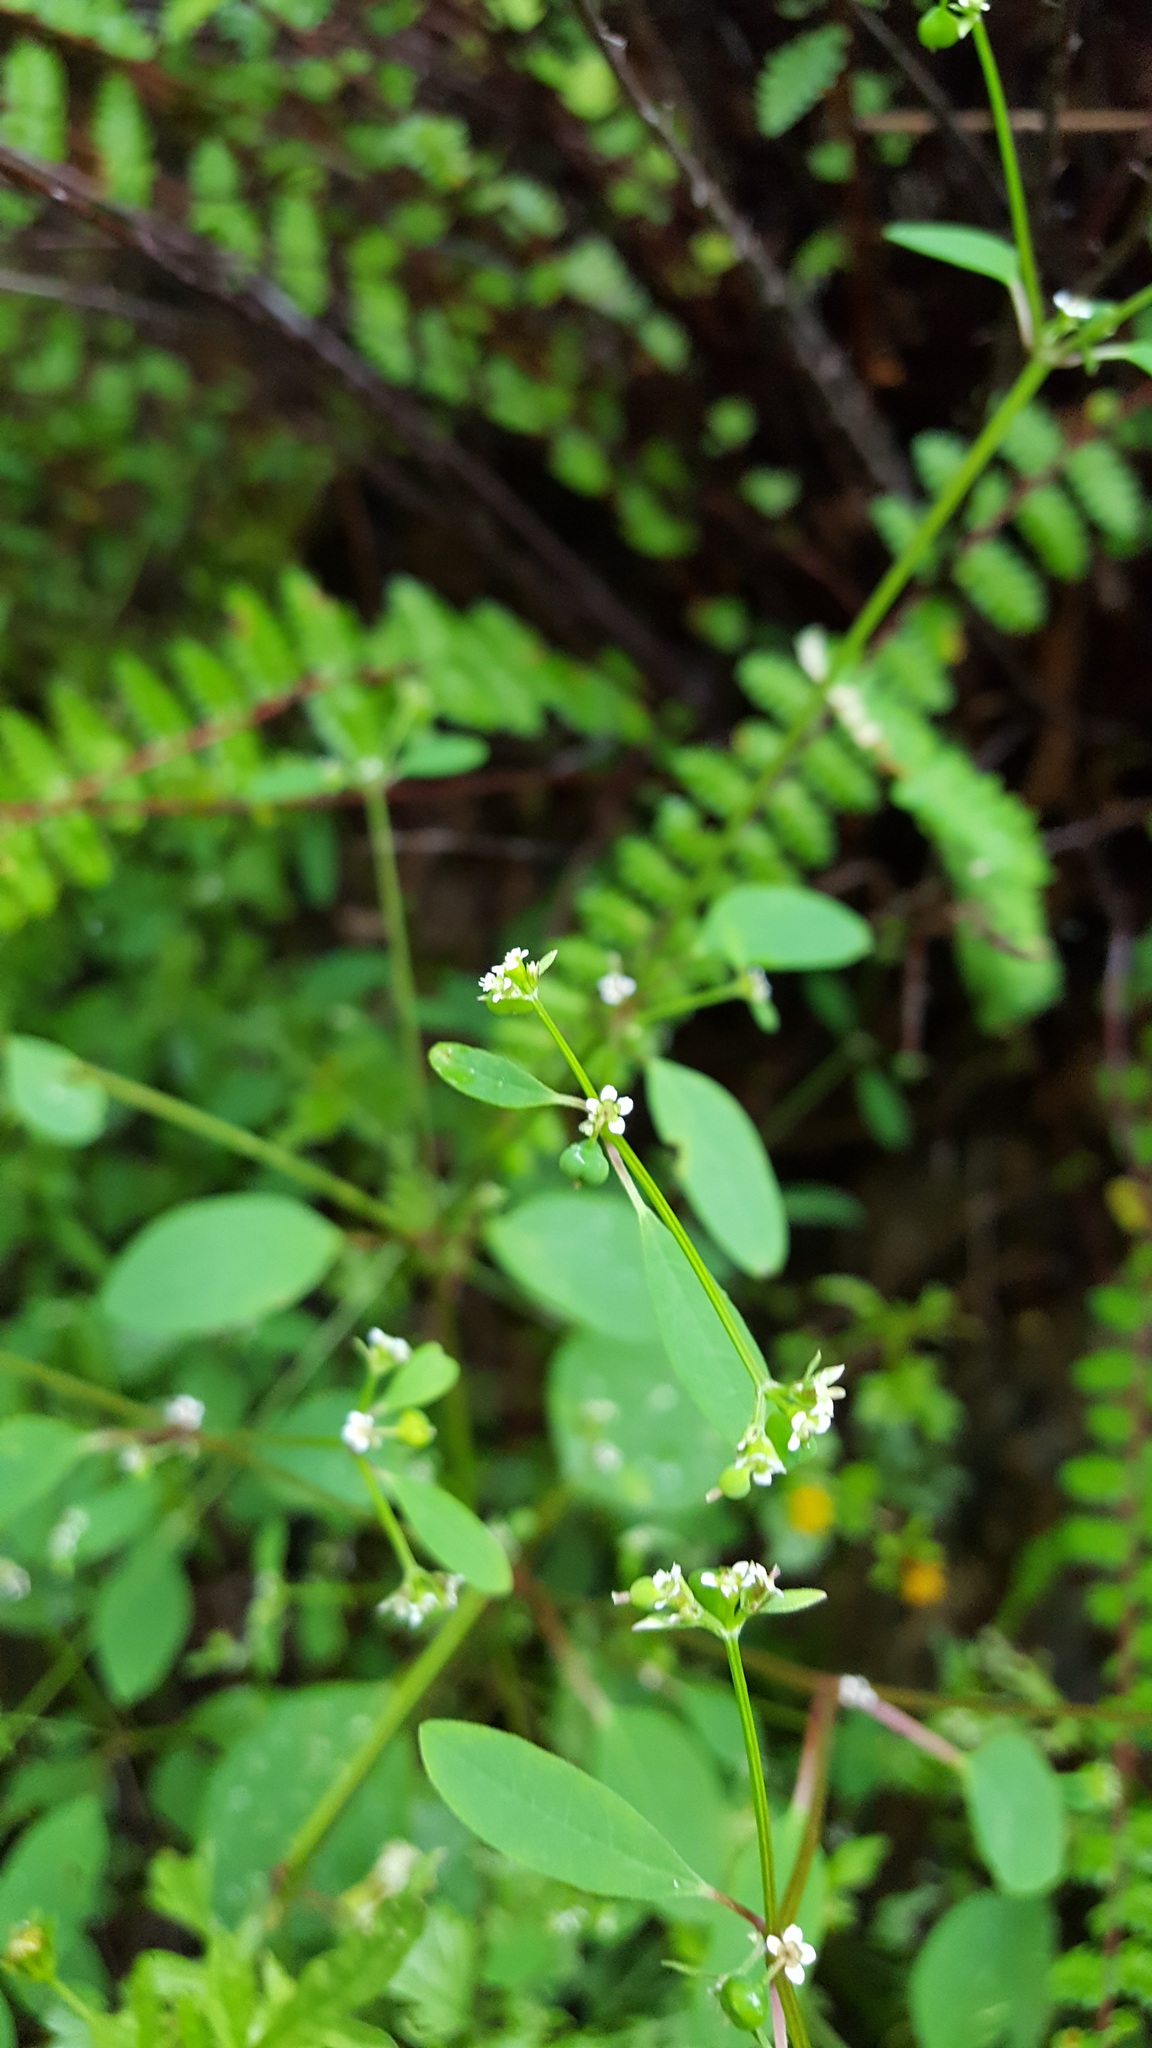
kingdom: Plantae
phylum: Tracheophyta
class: Magnoliopsida
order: Malpighiales
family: Euphorbiaceae
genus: Euphorbia
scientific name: Euphorbia graminea
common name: Grassleaf spurge
